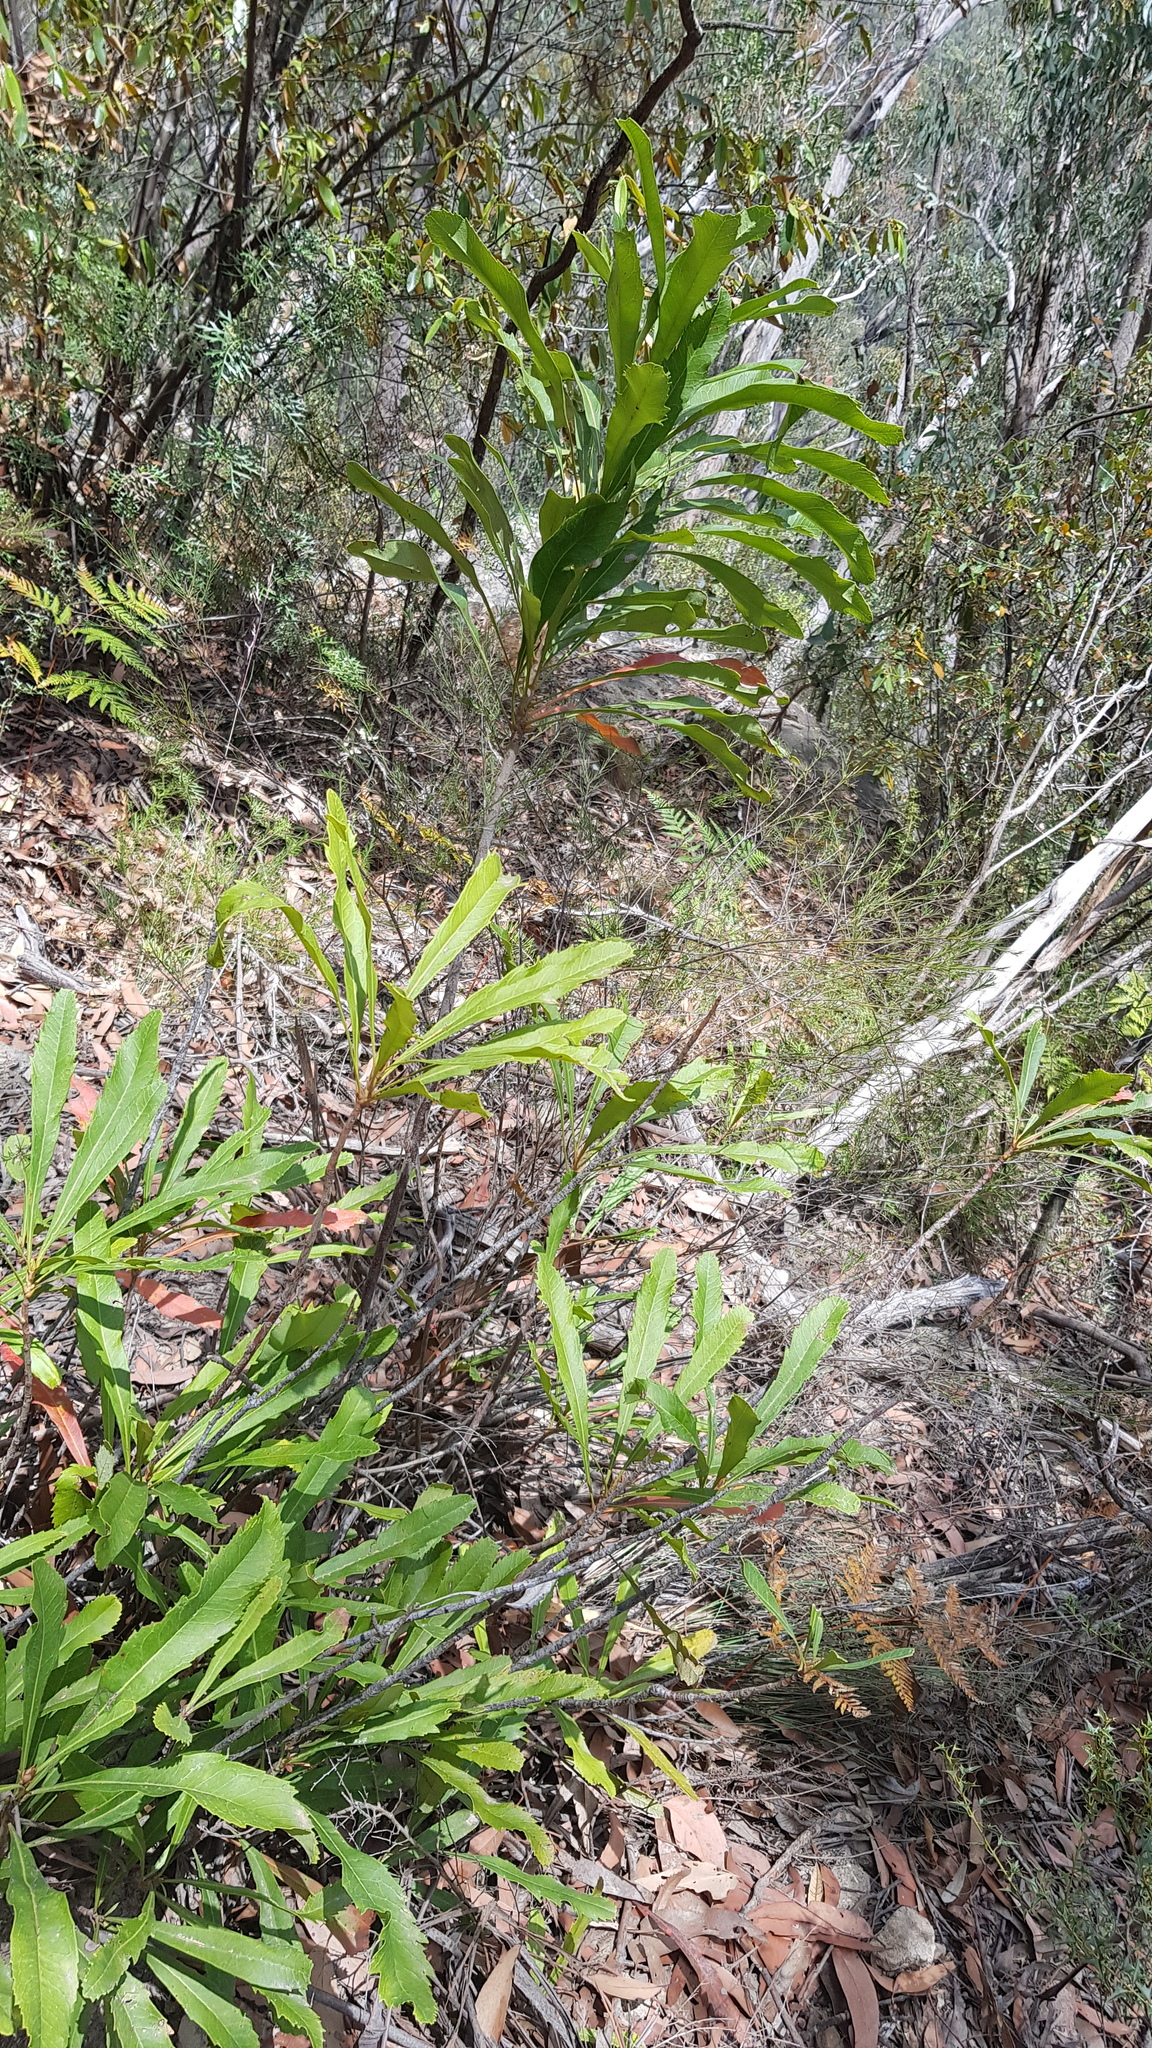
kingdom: Plantae
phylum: Tracheophyta
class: Magnoliopsida
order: Proteales
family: Proteaceae
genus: Telopea
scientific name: Telopea speciosissima
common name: New south wales waratah
